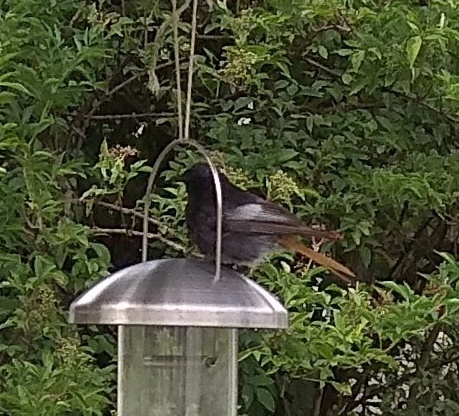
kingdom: Animalia
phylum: Chordata
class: Aves
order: Passeriformes
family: Muscicapidae
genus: Phoenicurus
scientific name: Phoenicurus ochruros
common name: Black redstart
